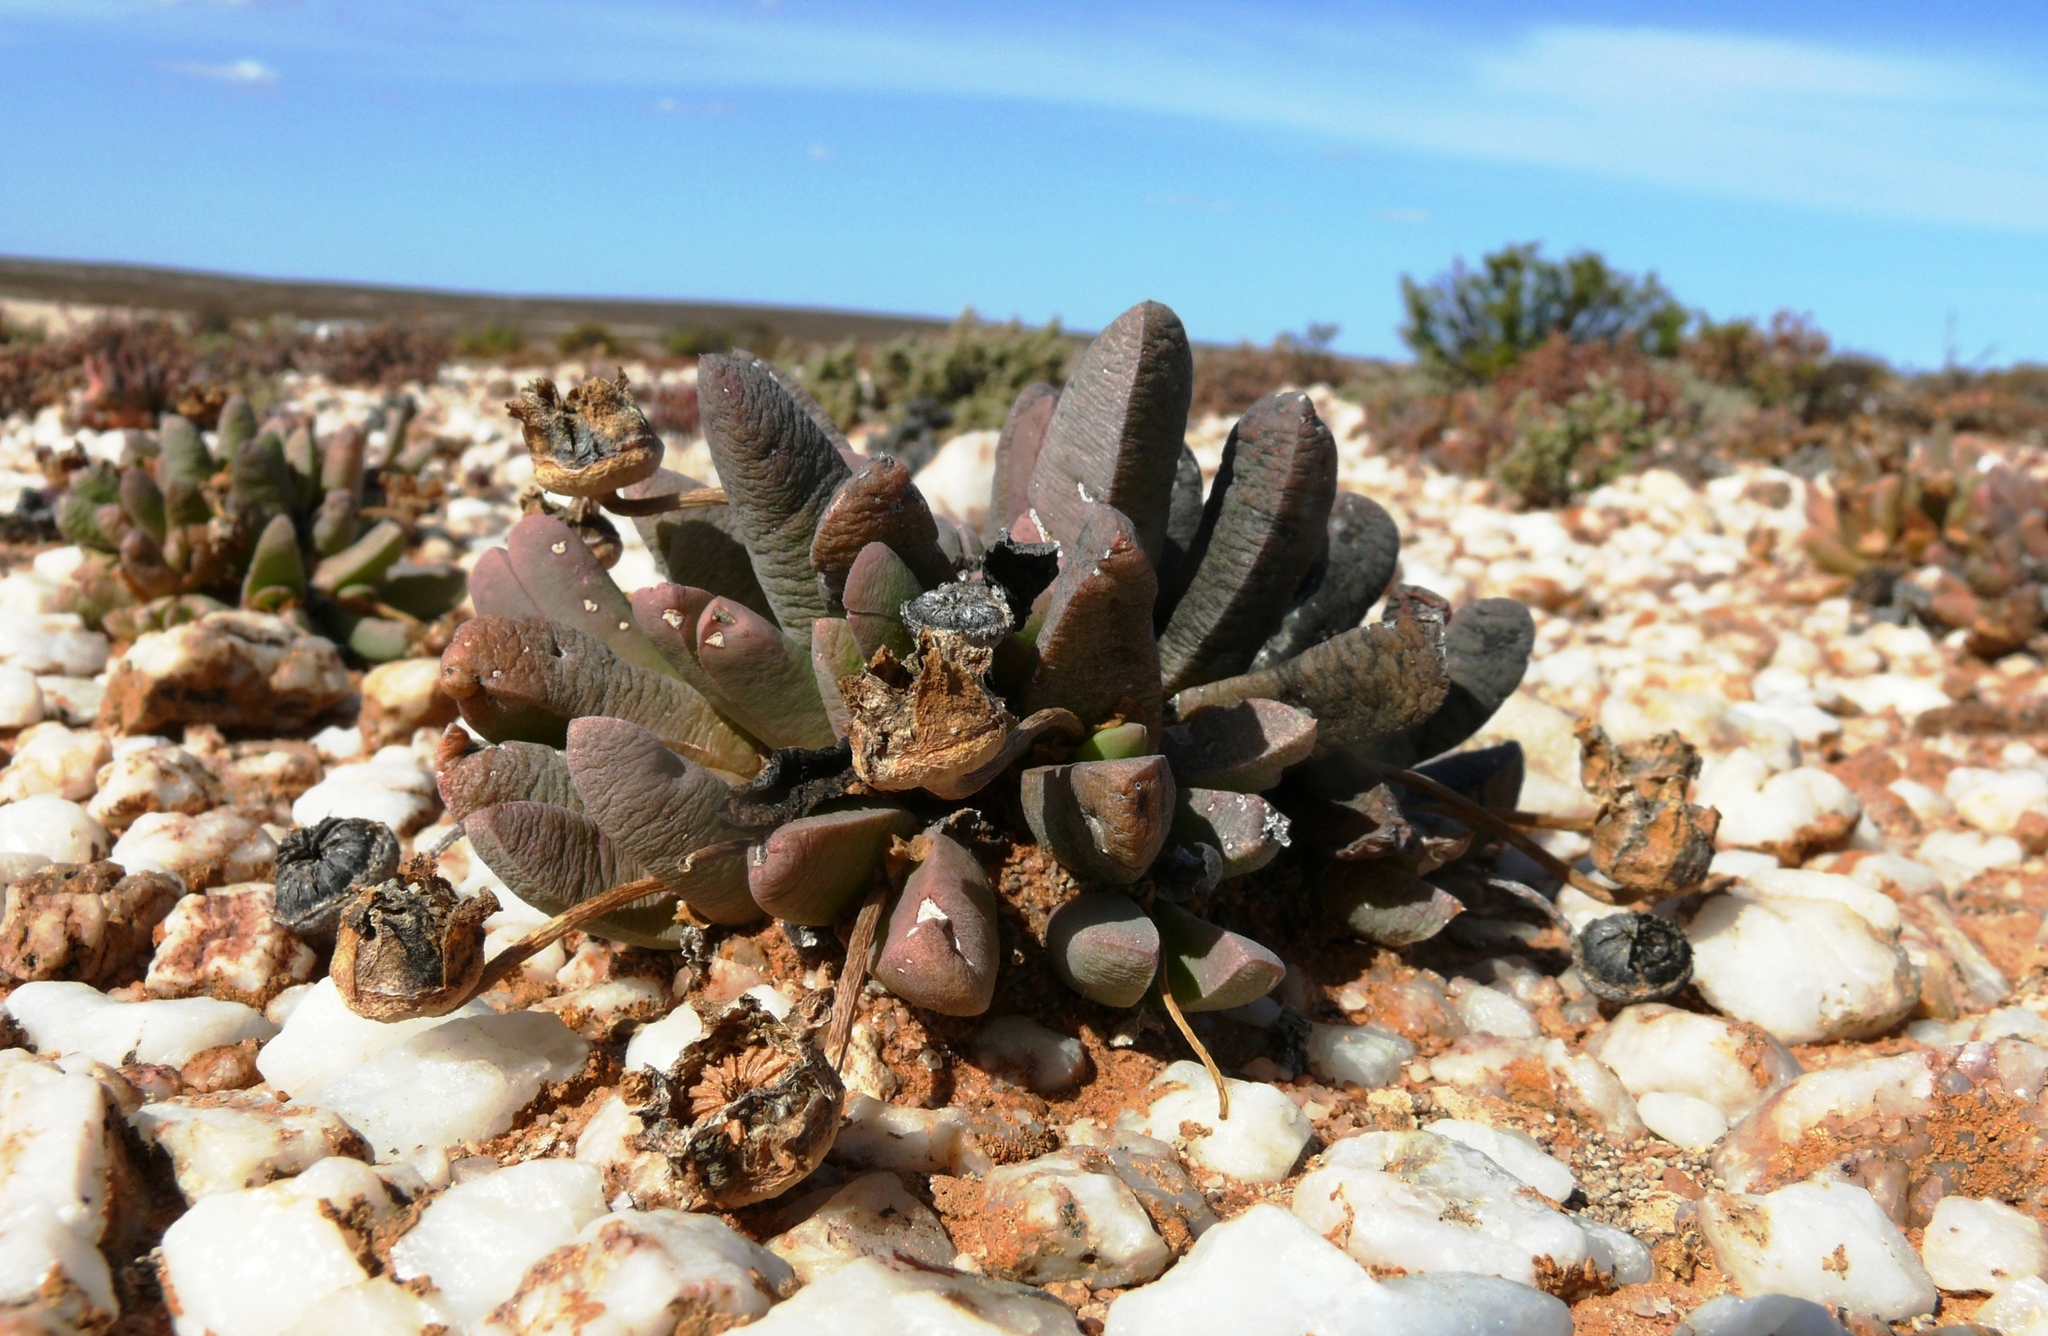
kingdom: Plantae
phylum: Tracheophyta
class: Magnoliopsida
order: Caryophyllales
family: Aizoaceae
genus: Cephalophyllum
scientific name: Cephalophyllum spissum
